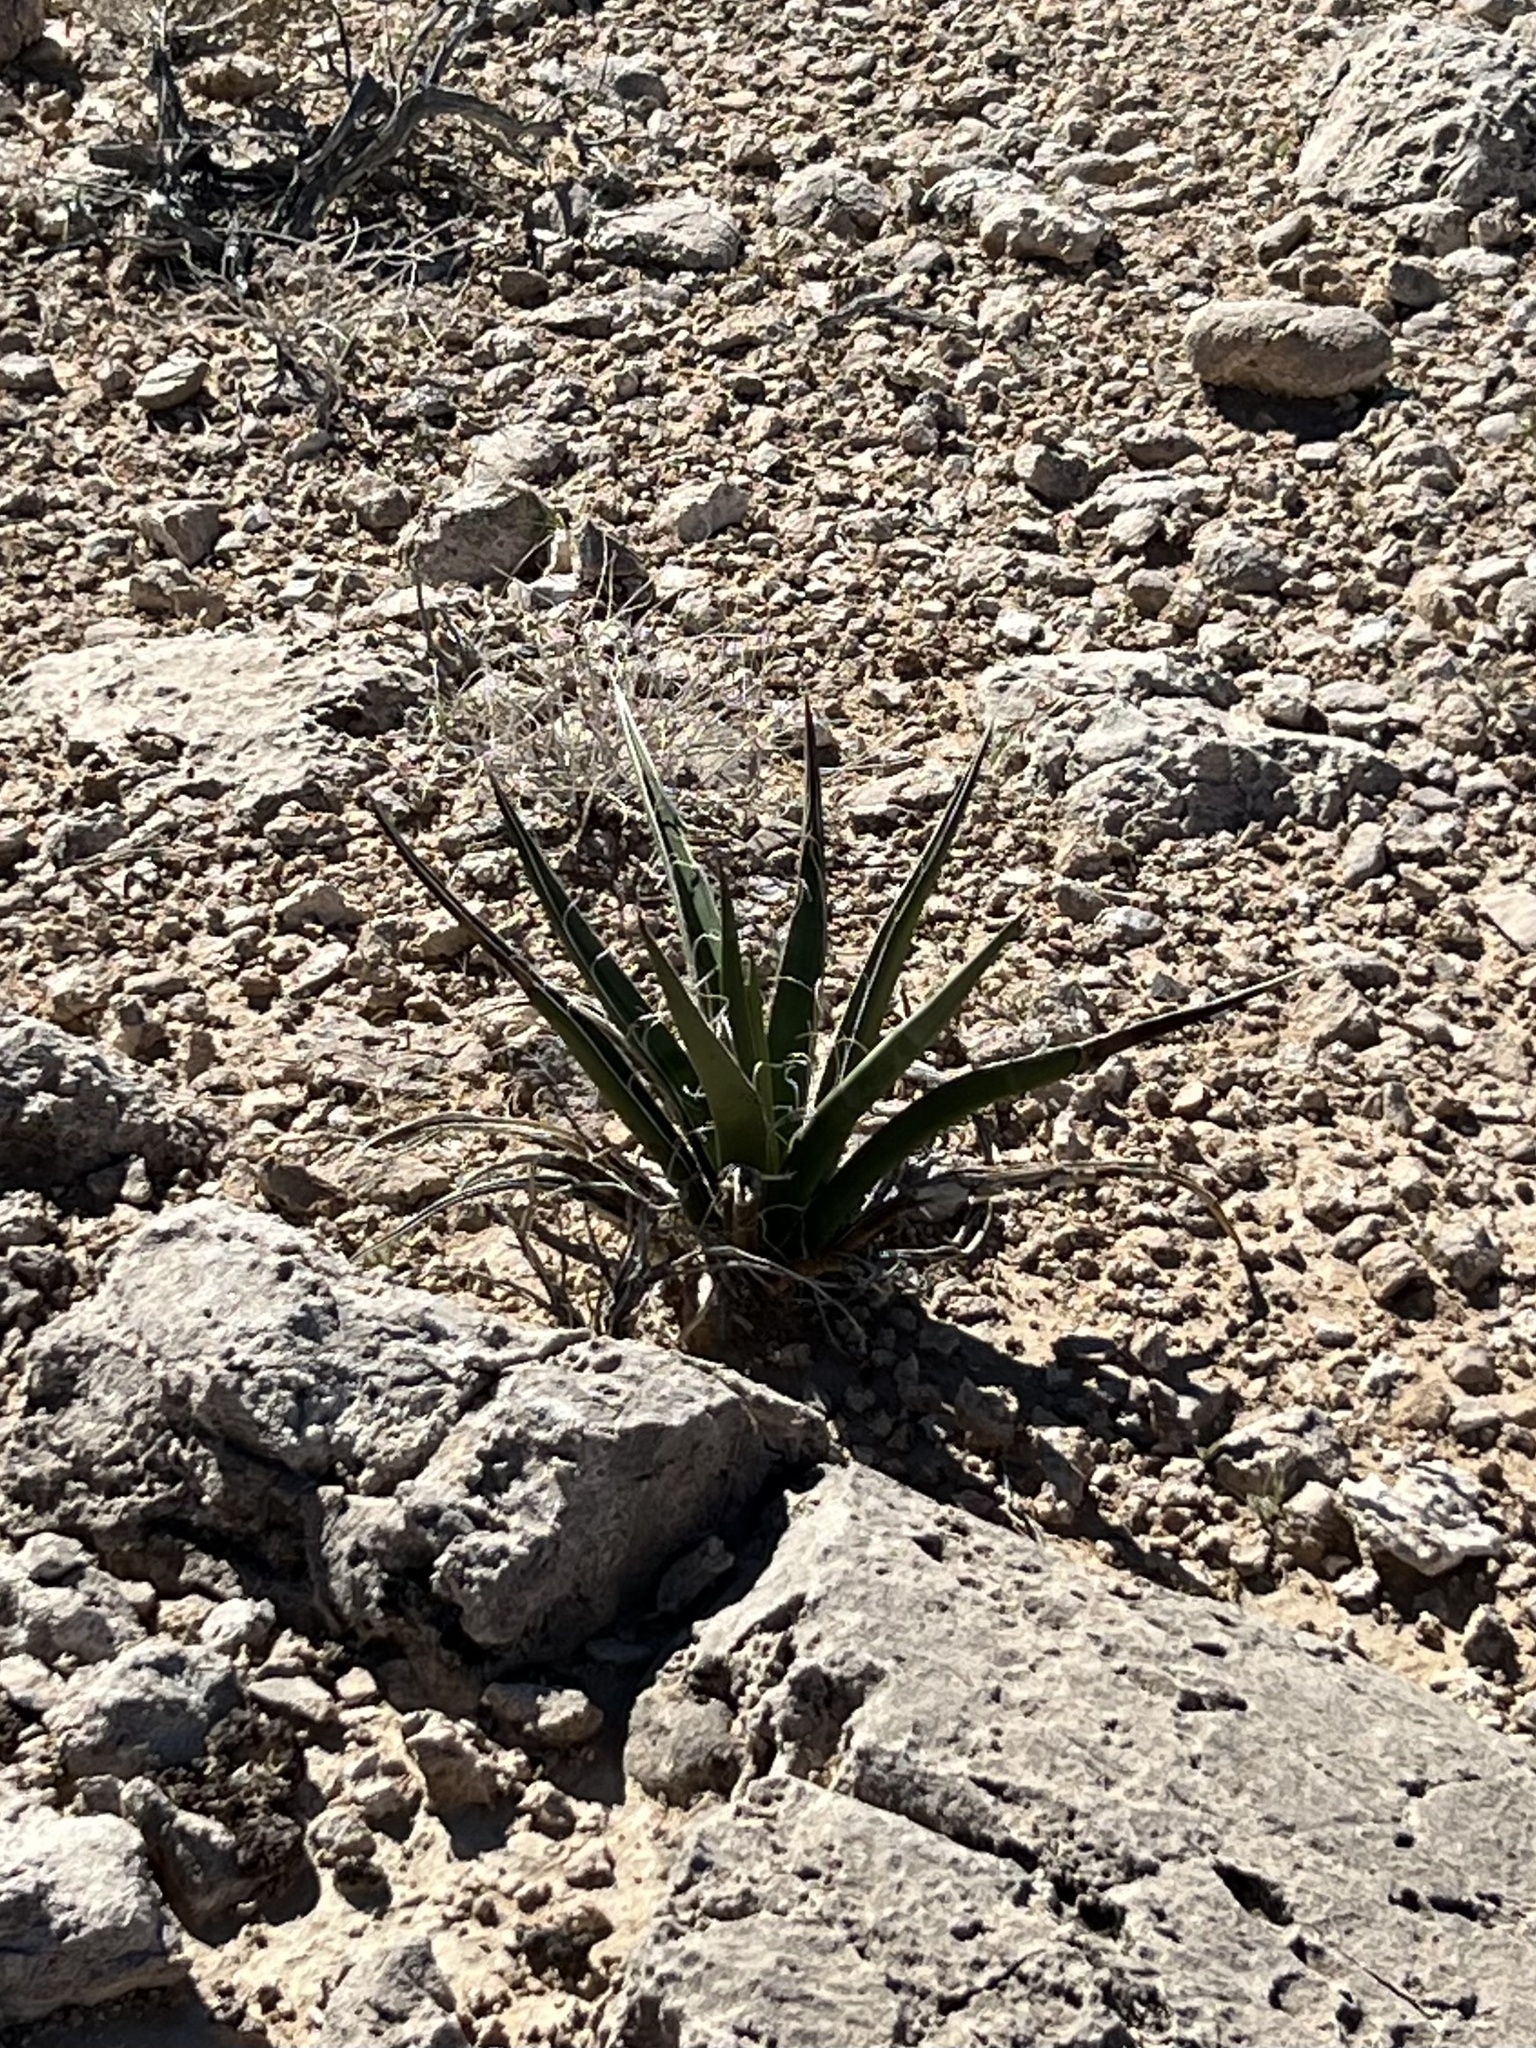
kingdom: Plantae
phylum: Tracheophyta
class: Liliopsida
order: Asparagales
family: Asparagaceae
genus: Yucca
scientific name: Yucca schidigera
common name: Mojave yucca
